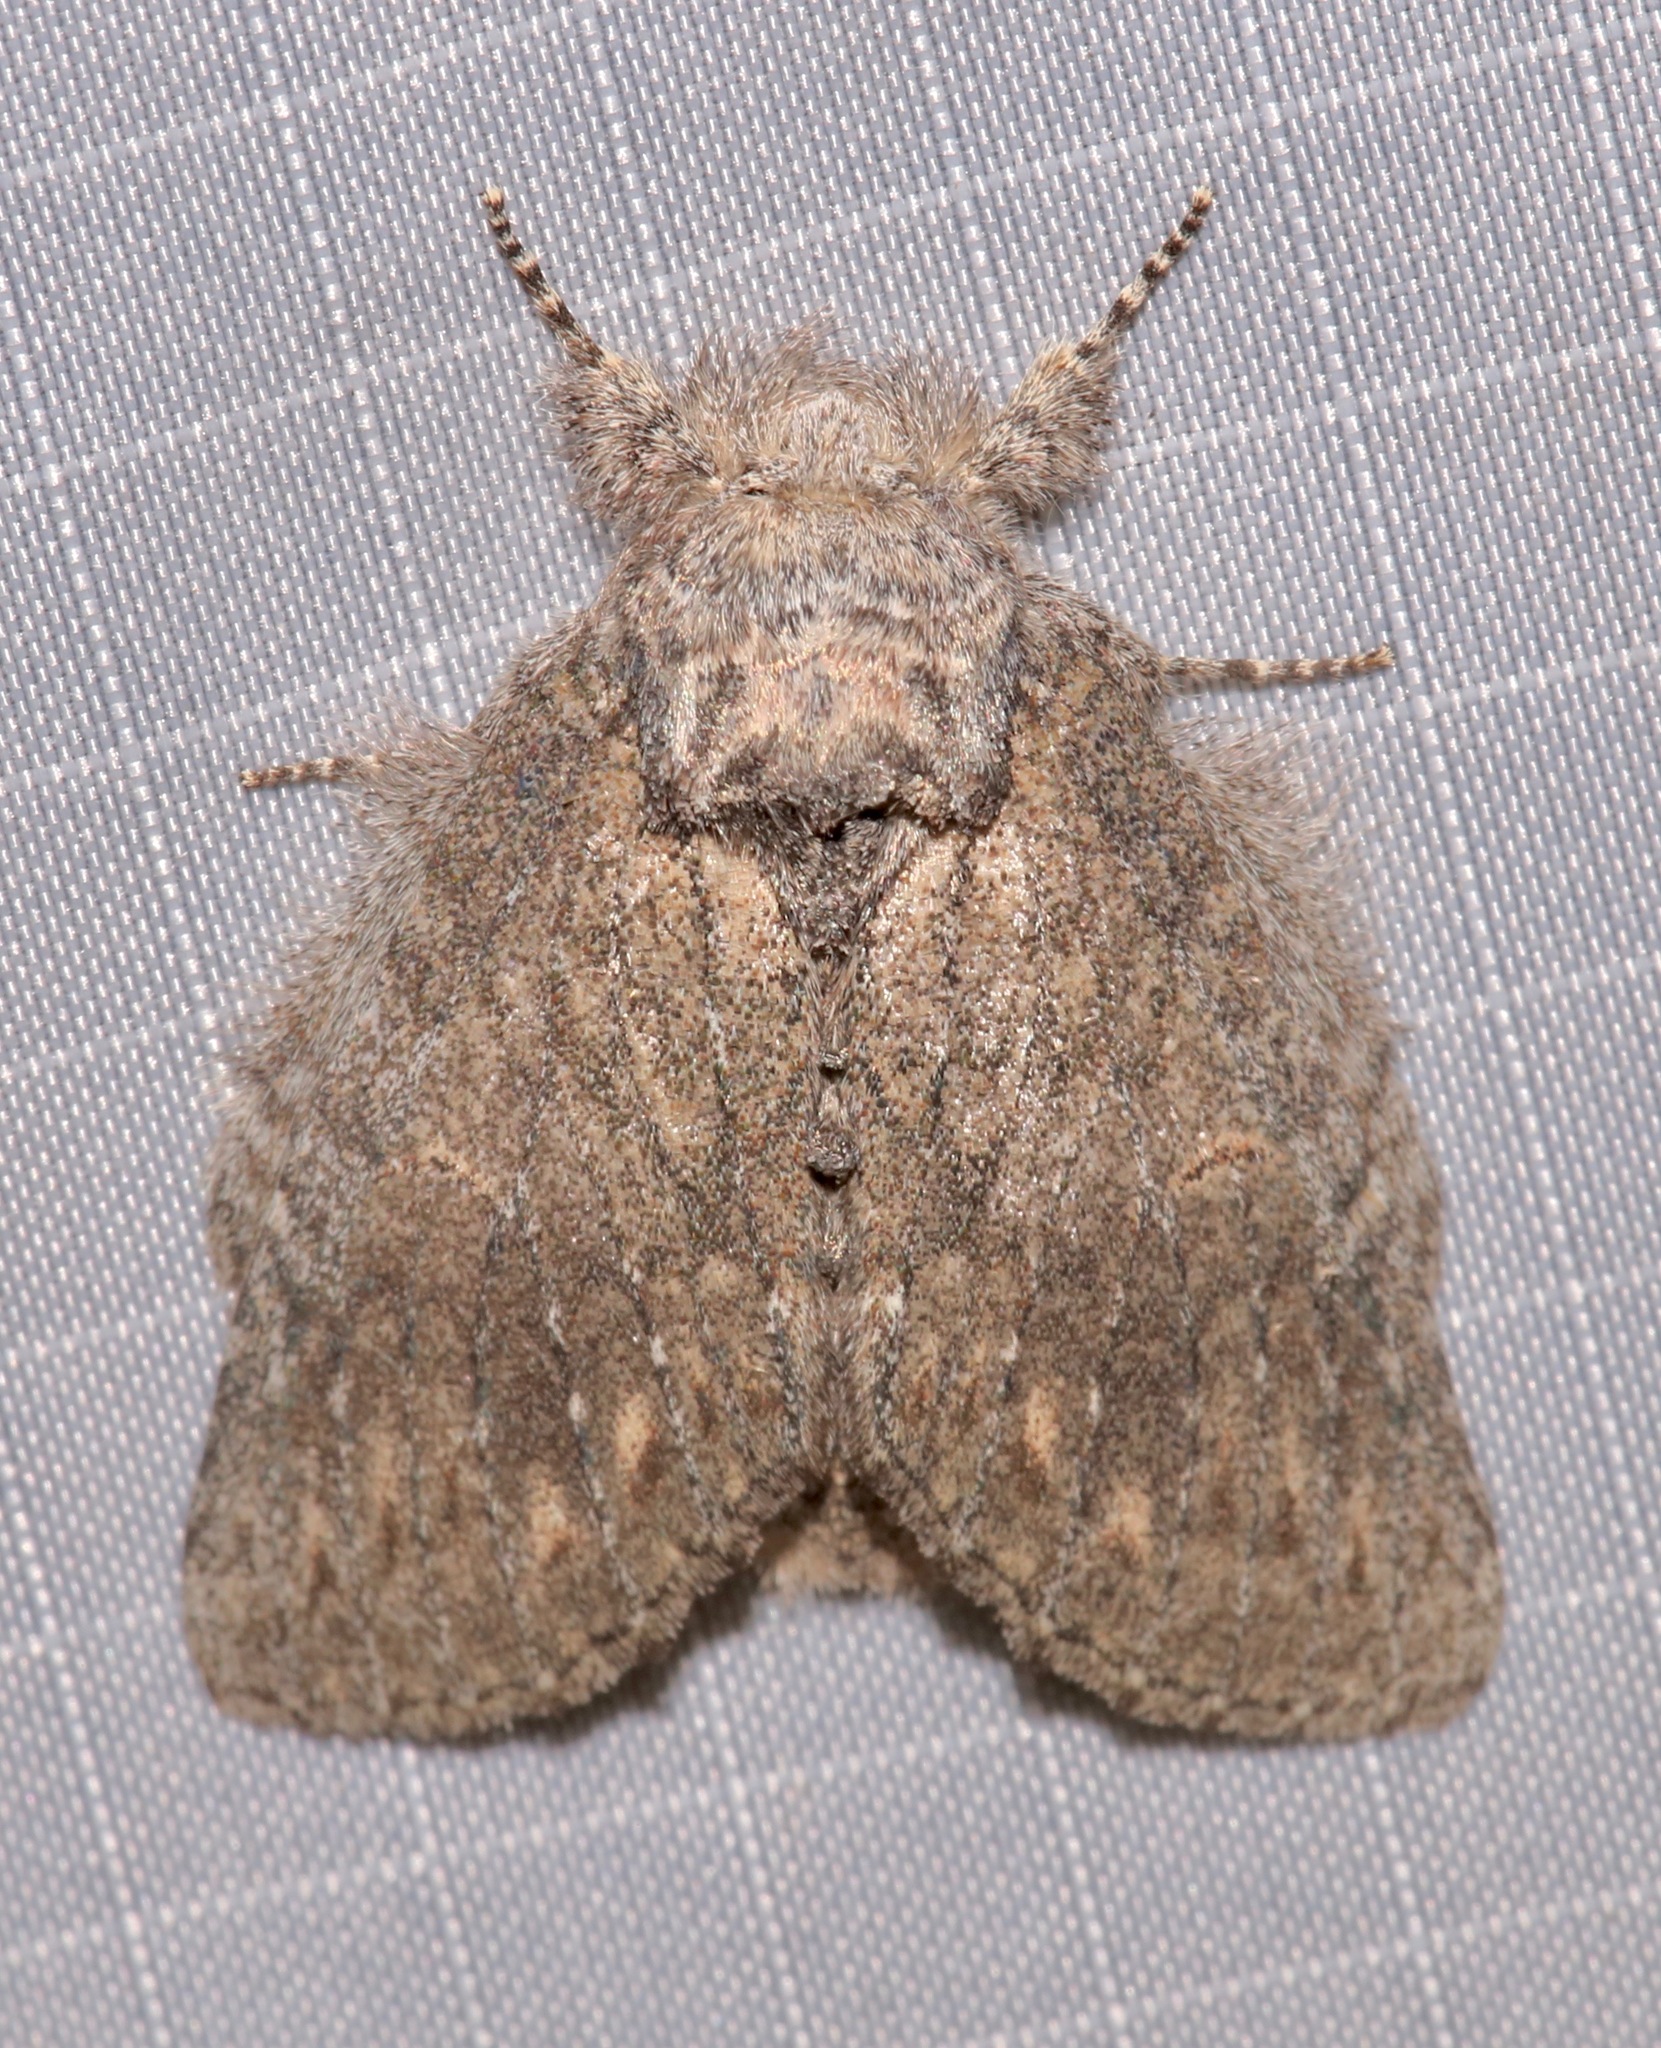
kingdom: Animalia
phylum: Arthropoda
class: Insecta
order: Lepidoptera
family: Notodontidae
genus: Disphragis
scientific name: Disphragis
